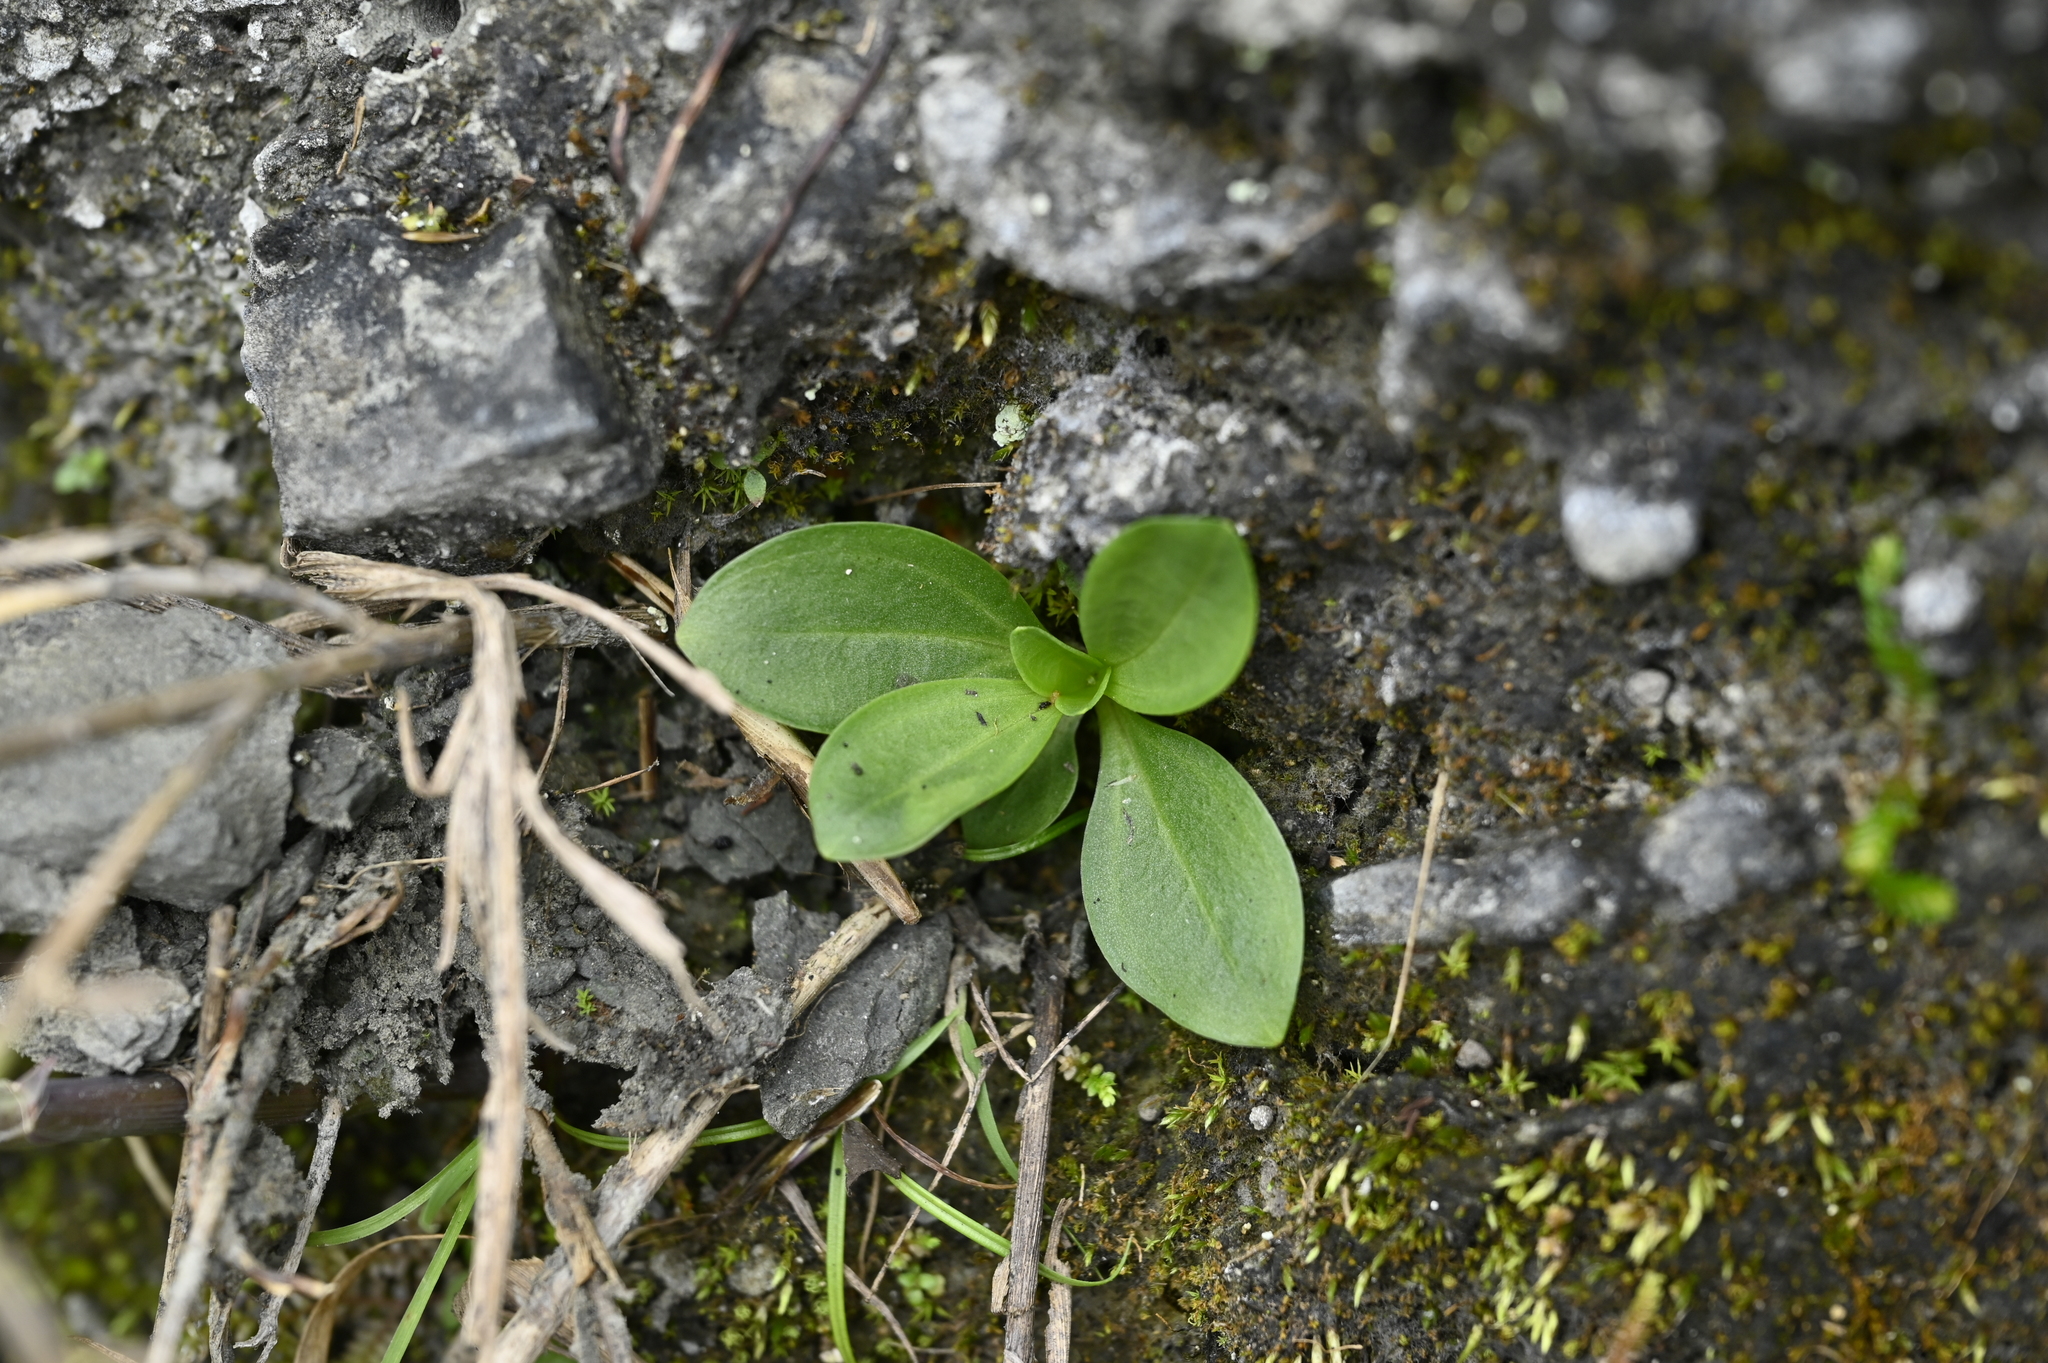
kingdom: Plantae
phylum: Tracheophyta
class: Magnoliopsida
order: Gentianales
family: Gentianaceae
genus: Swertia
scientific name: Swertia arisanensis
